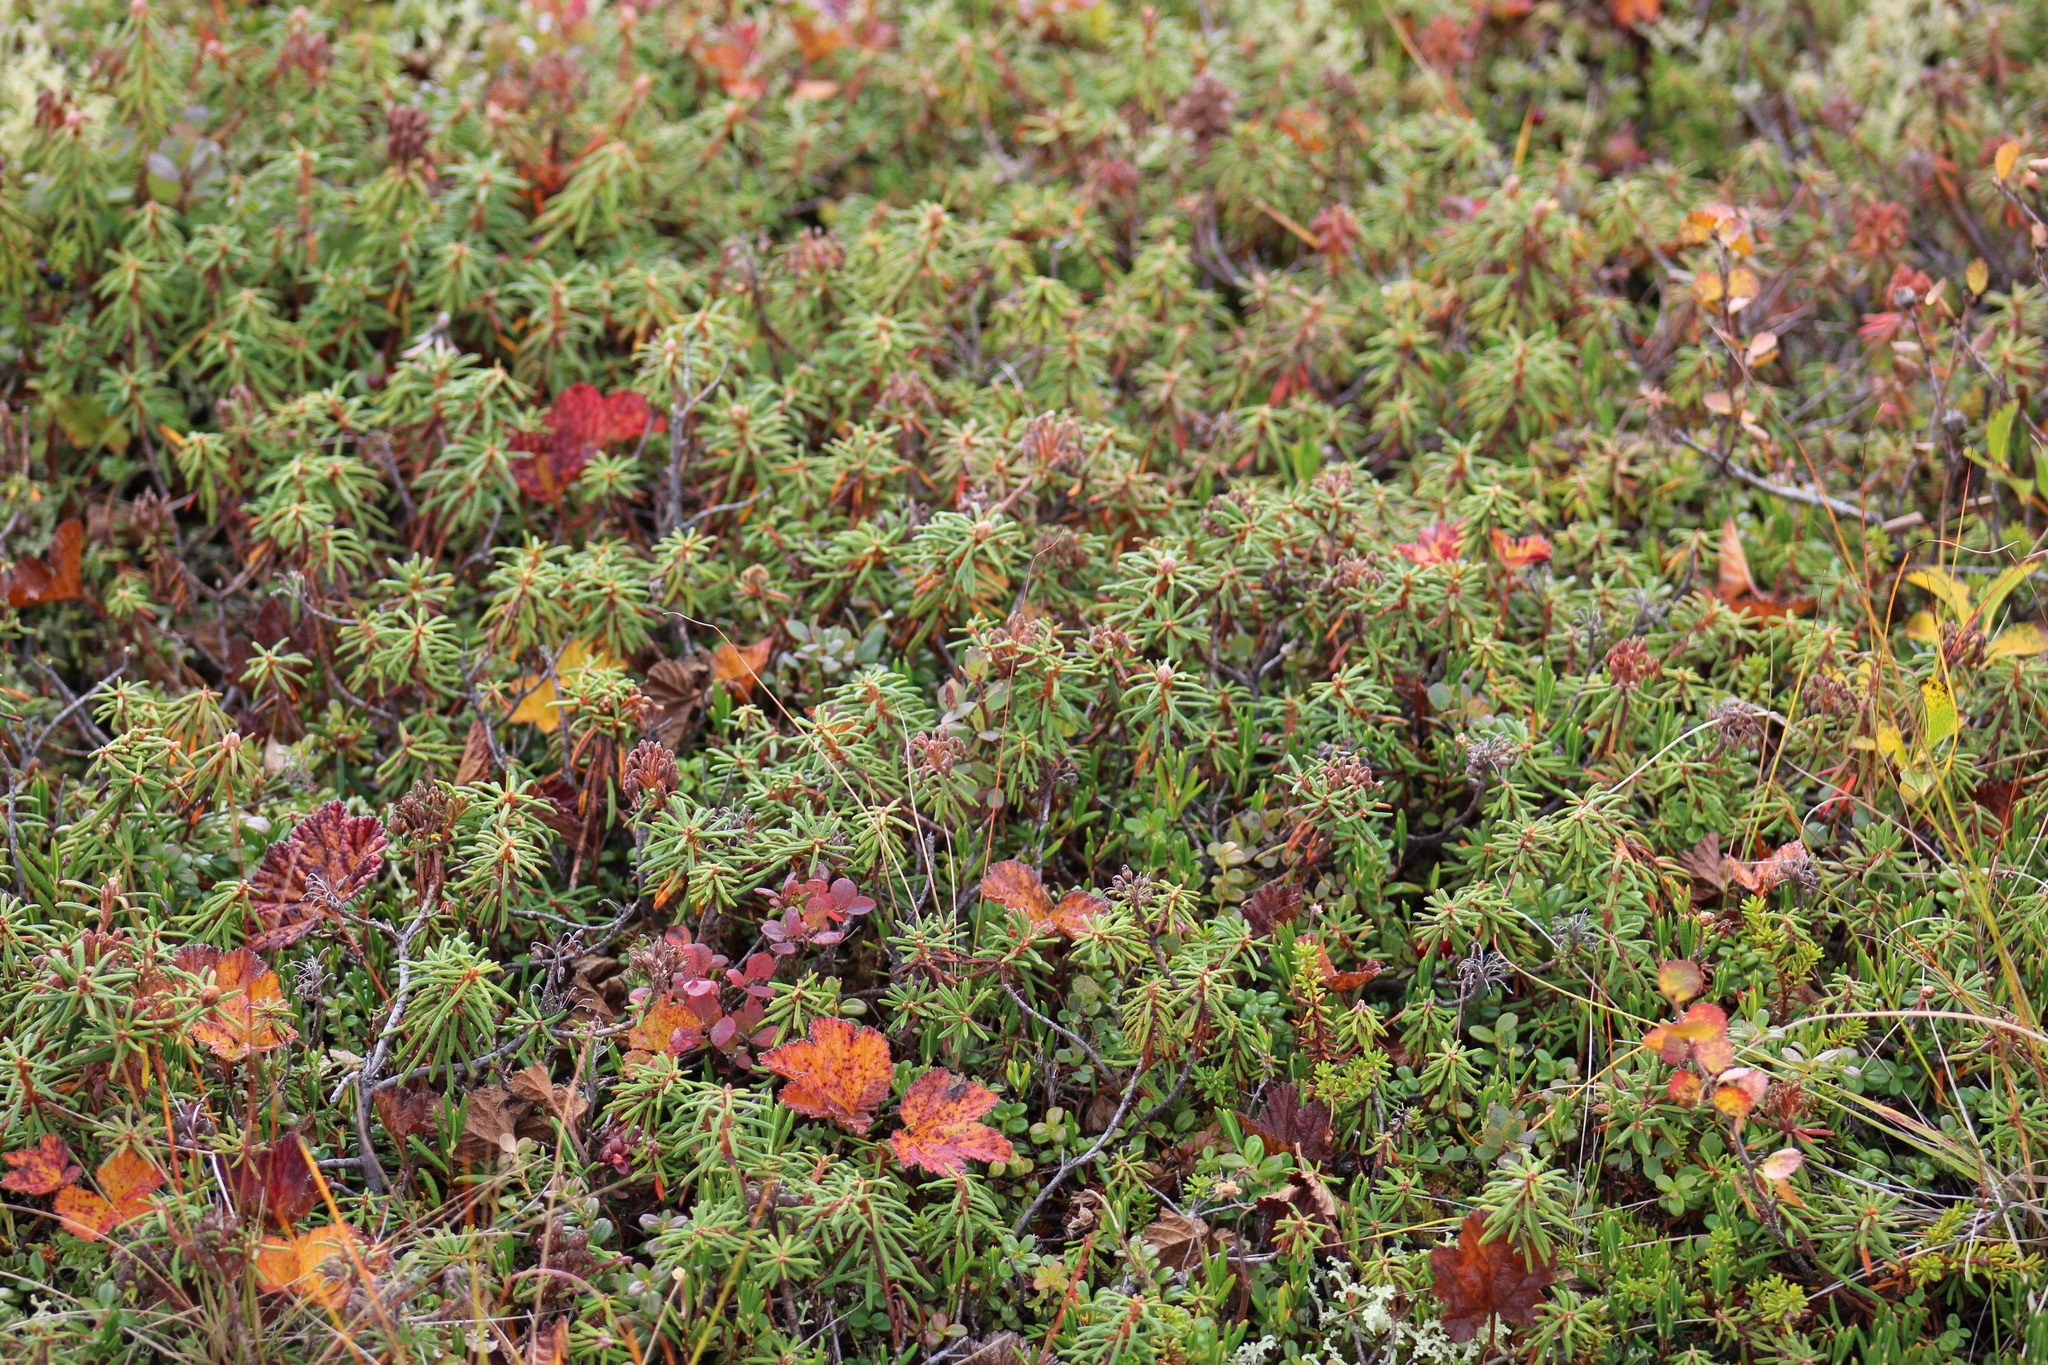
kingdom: Plantae
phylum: Tracheophyta
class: Magnoliopsida
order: Ericales
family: Ericaceae
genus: Rhododendron
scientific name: Rhododendron tomentosum
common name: Marsh labrador tea
